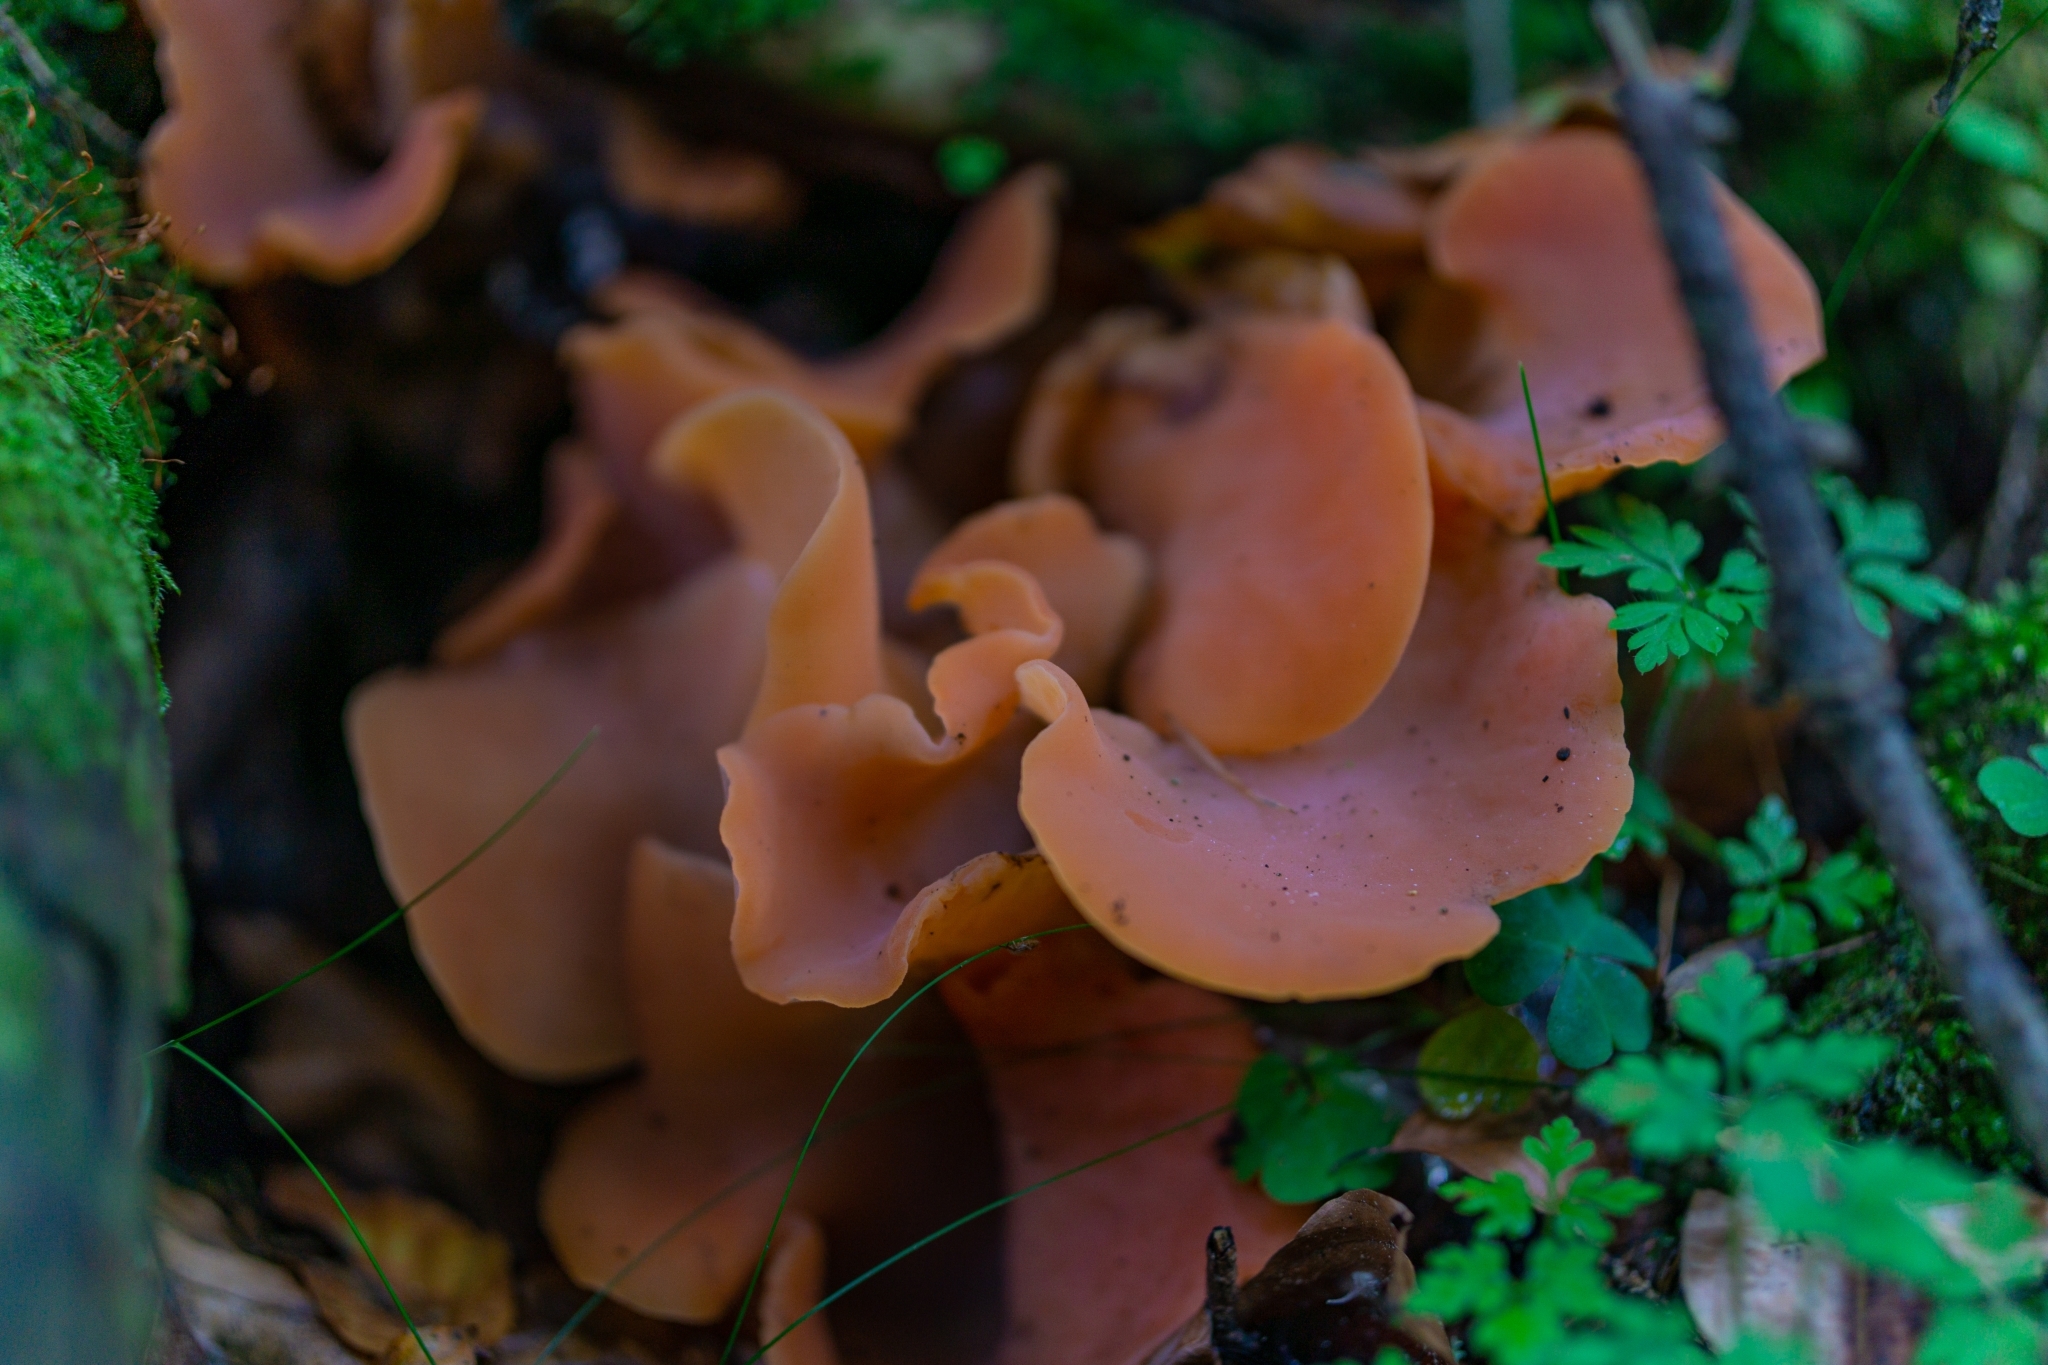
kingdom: Fungi
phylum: Basidiomycota
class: Agaricomycetes
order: Auriculariales
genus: Guepinia
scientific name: Guepinia helvelloides
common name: Salmon salad
